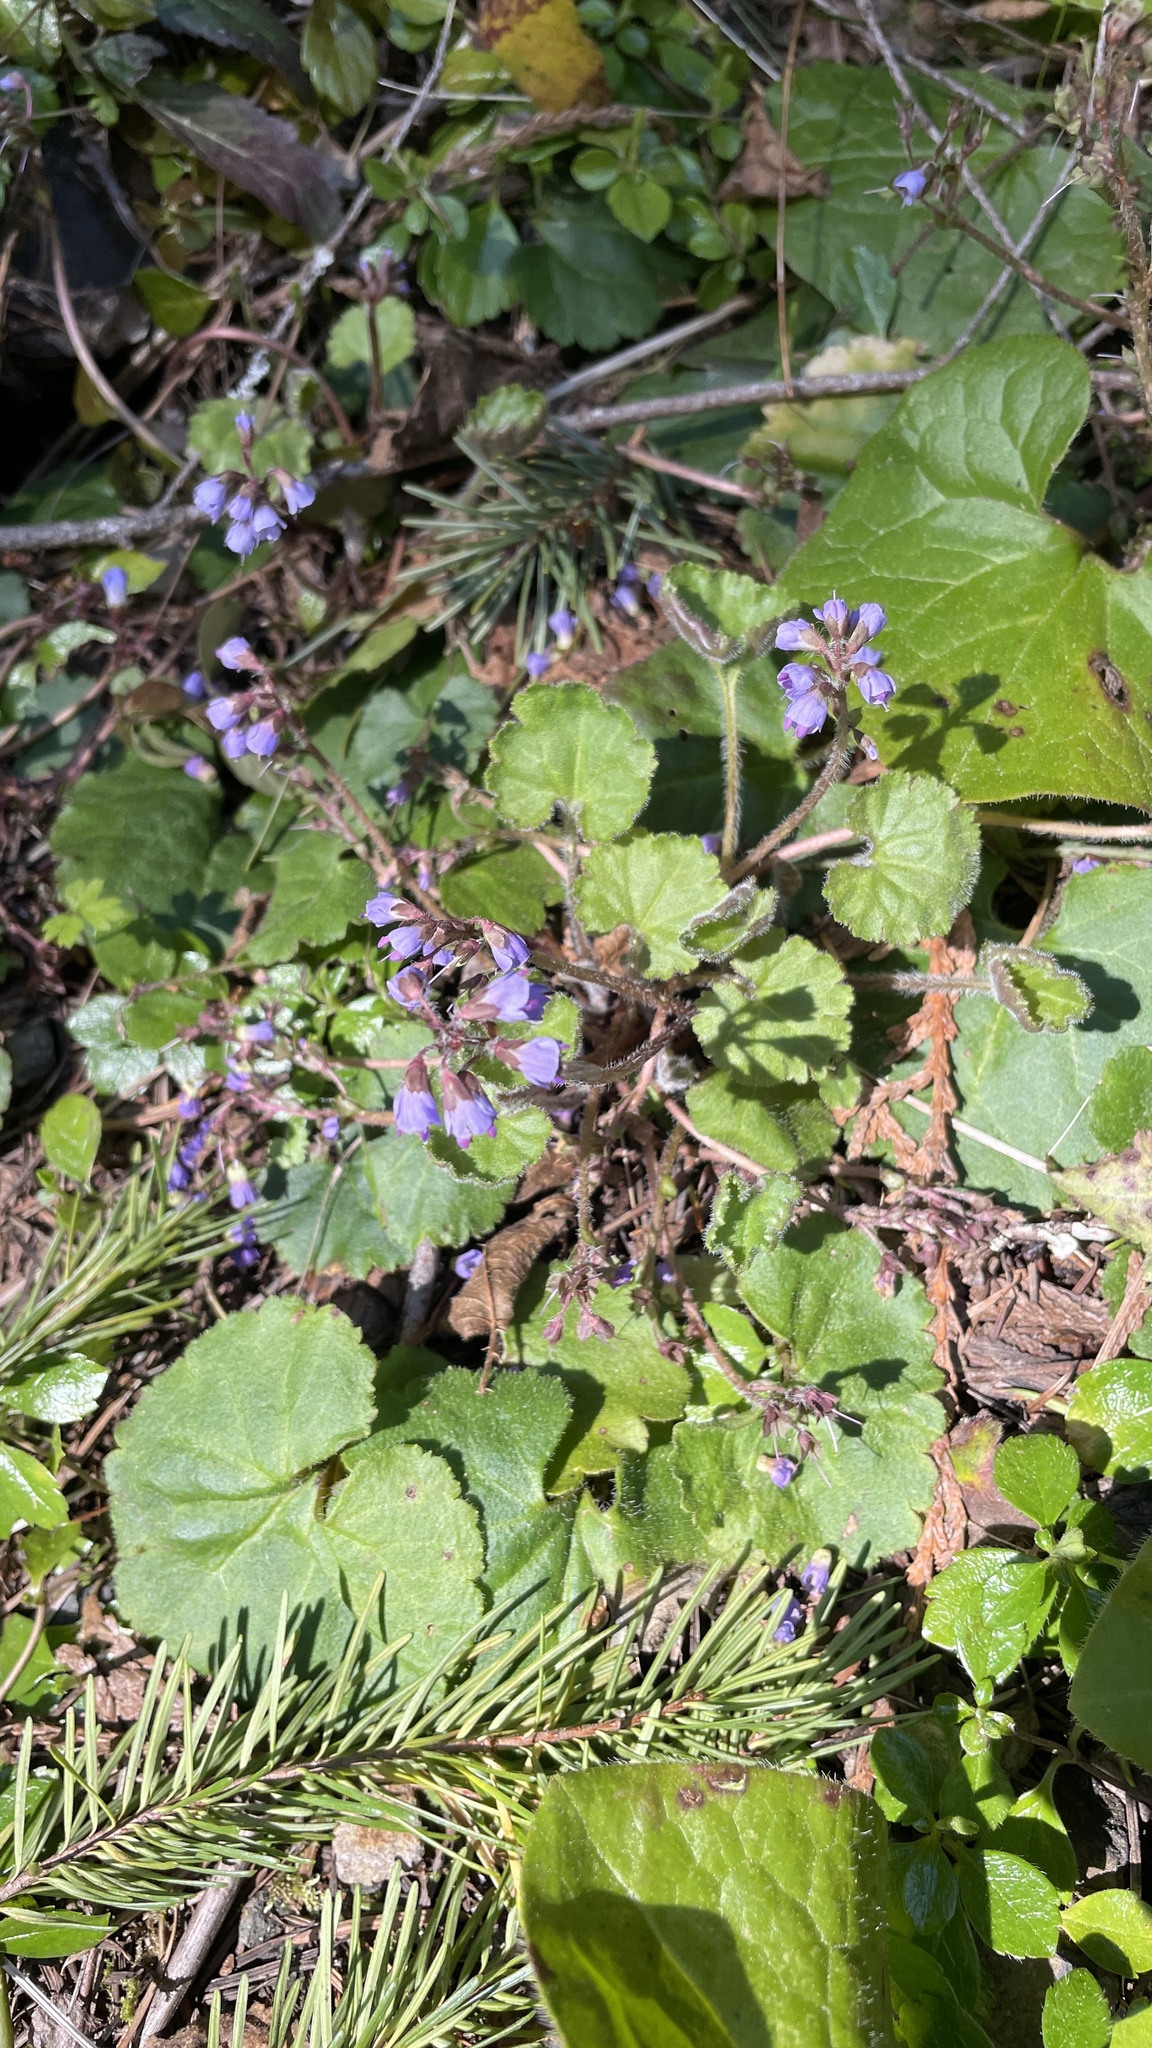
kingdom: Plantae
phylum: Tracheophyta
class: Magnoliopsida
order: Lamiales
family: Plantaginaceae
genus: Synthyris
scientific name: Synthyris reniformis
